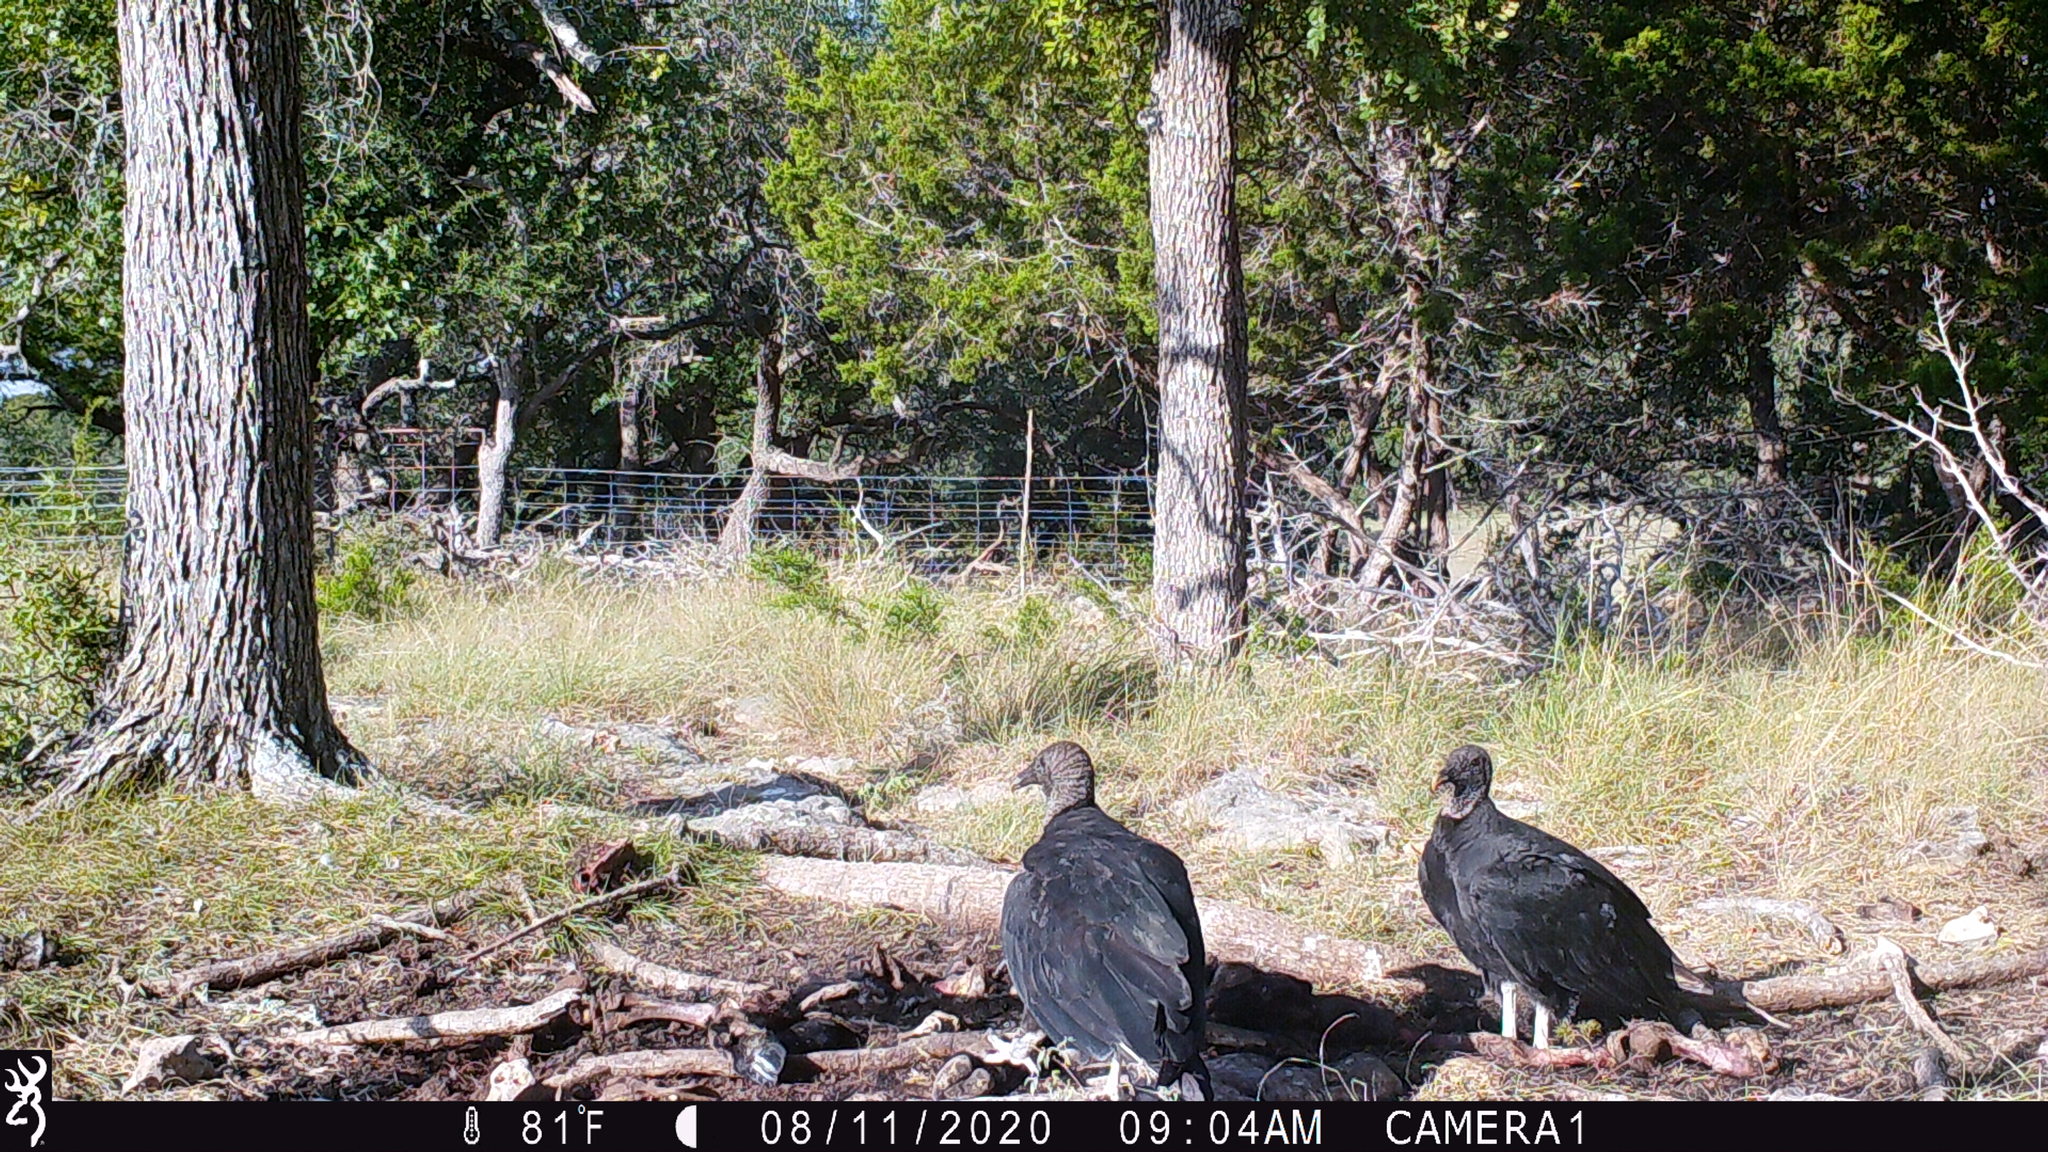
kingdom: Animalia
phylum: Chordata
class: Aves
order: Accipitriformes
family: Cathartidae
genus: Coragyps
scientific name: Coragyps atratus
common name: Black vulture
